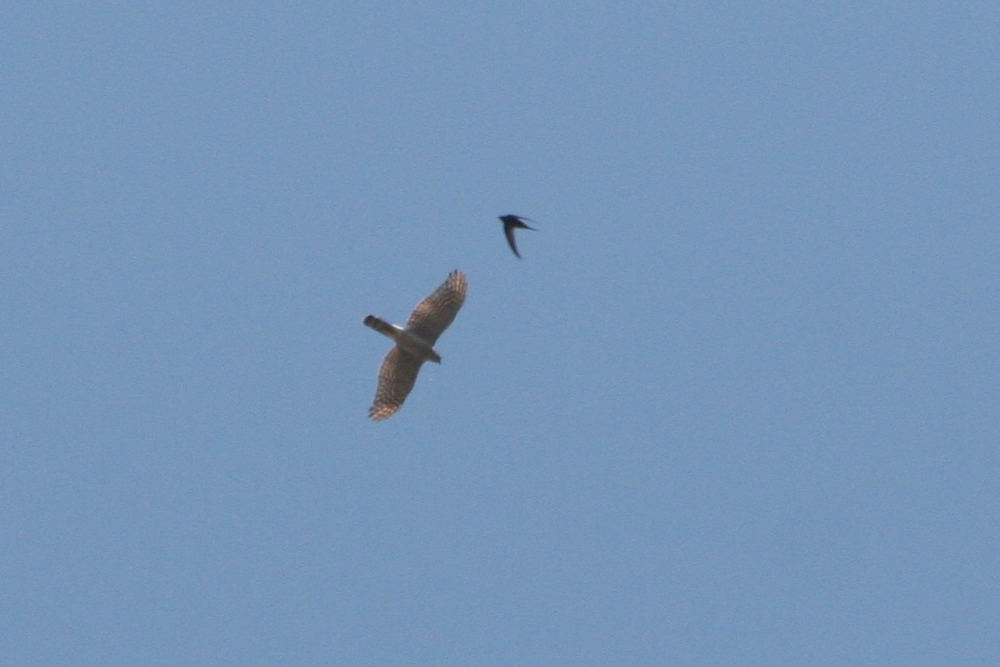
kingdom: Animalia
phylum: Chordata
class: Aves
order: Accipitriformes
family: Accipitridae
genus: Accipiter
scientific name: Accipiter nisus
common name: Eurasian sparrowhawk
